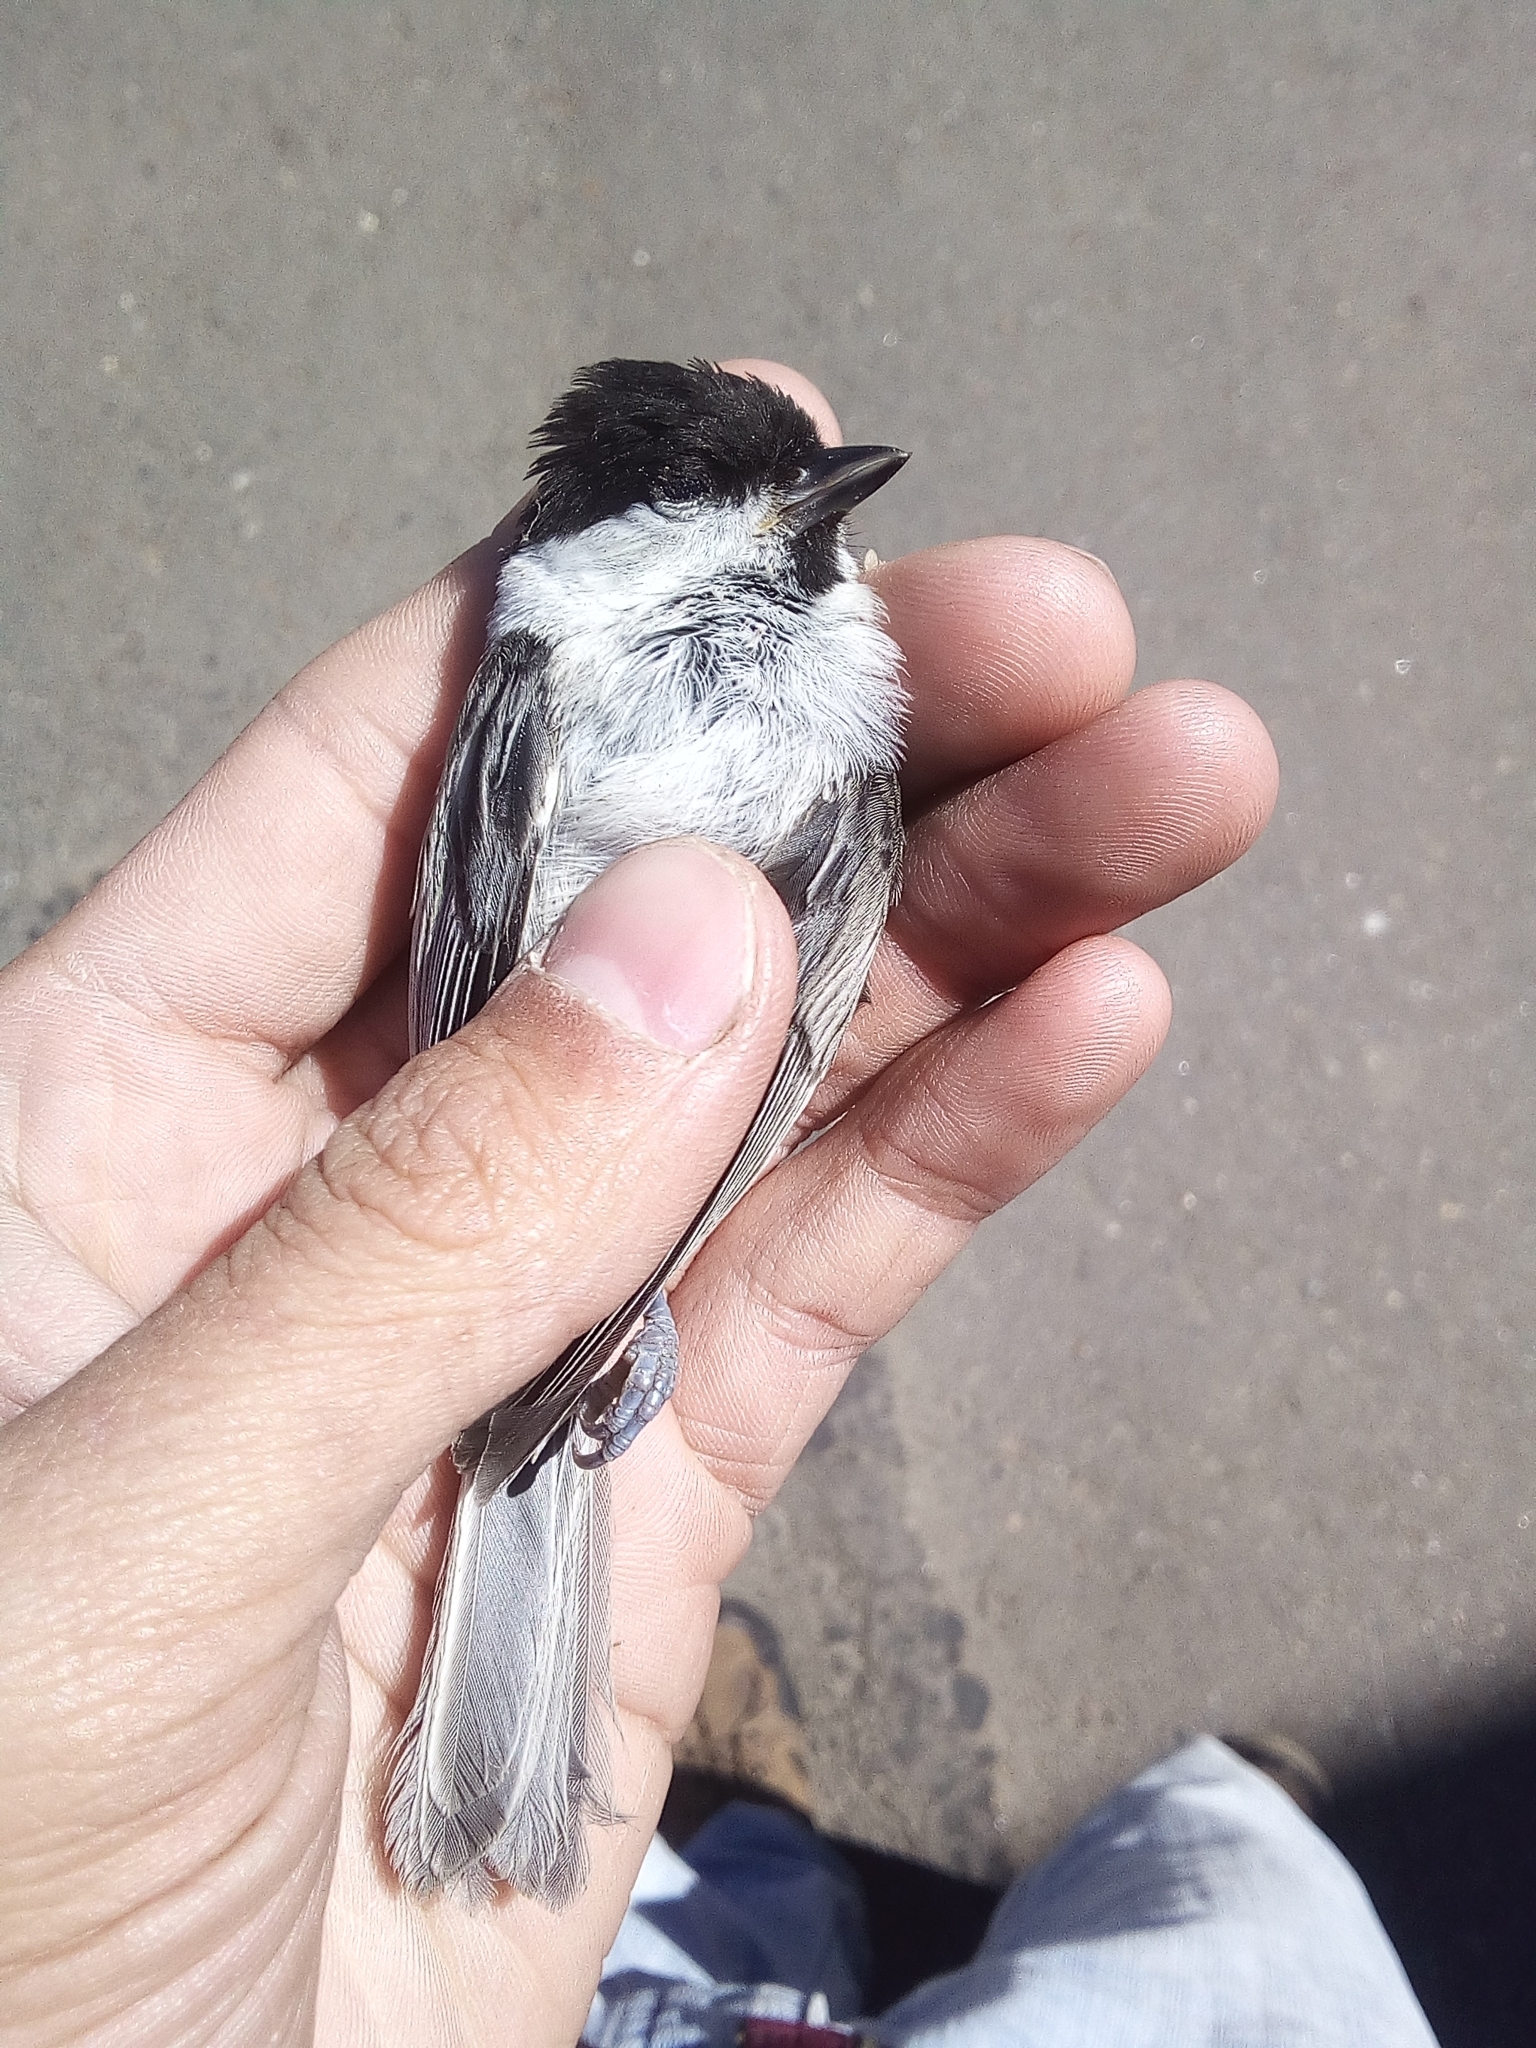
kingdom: Animalia
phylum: Chordata
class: Aves
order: Passeriformes
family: Paridae
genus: Poecile
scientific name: Poecile montanus
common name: Willow tit
